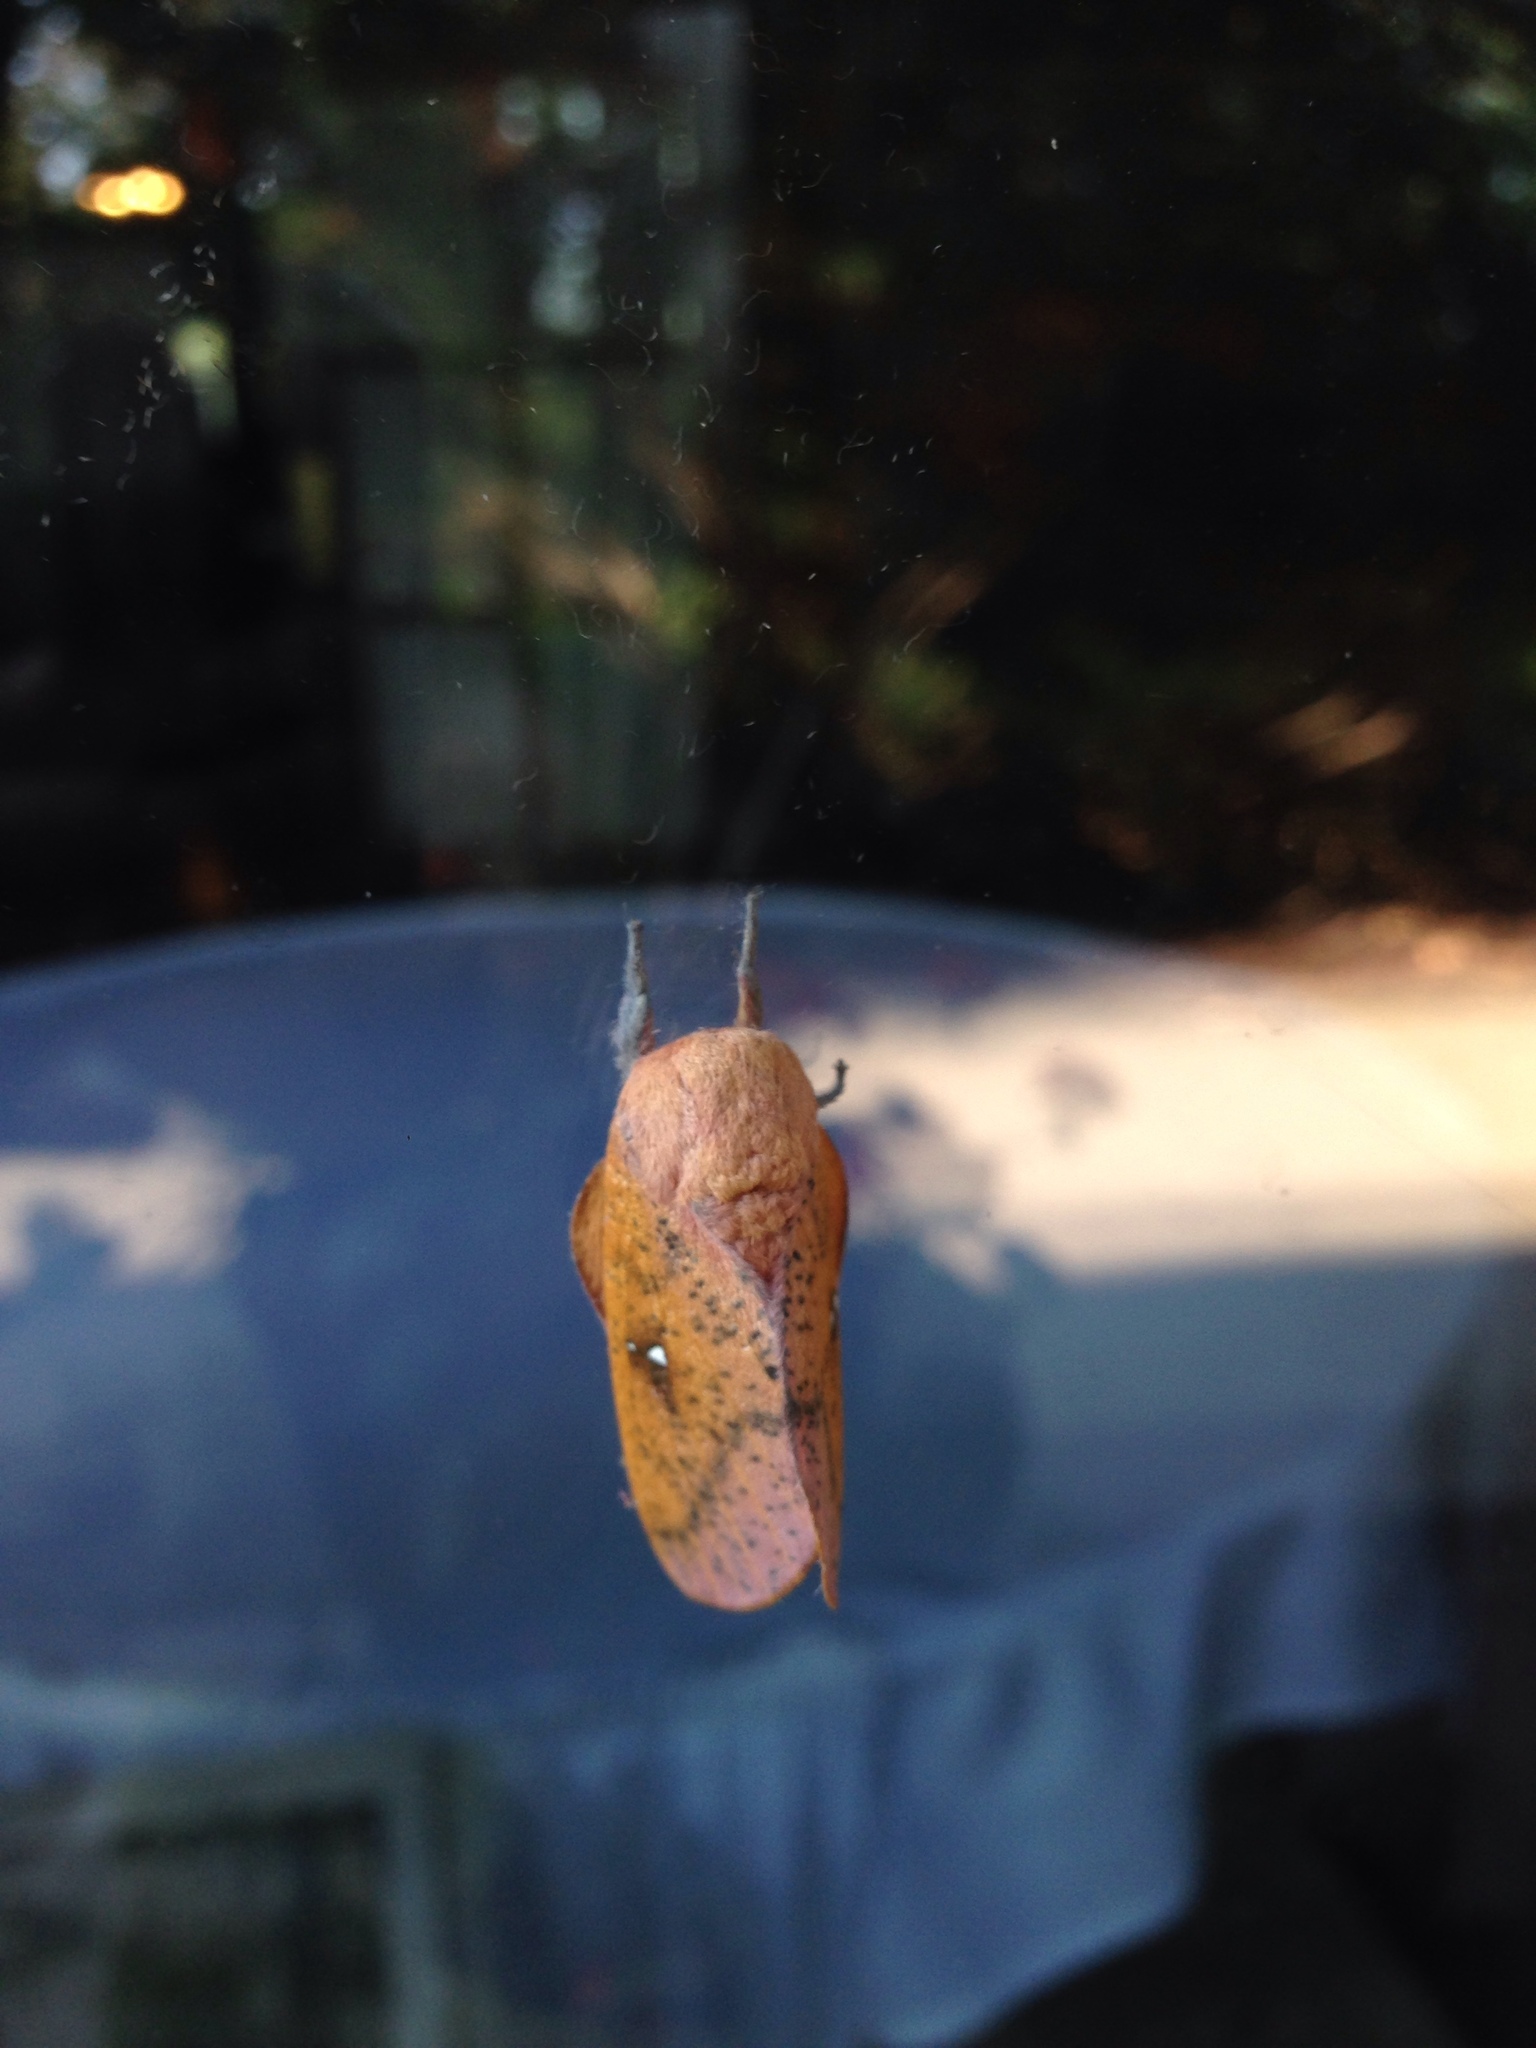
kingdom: Animalia
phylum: Arthropoda
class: Insecta
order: Lepidoptera
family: Saturniidae
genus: Syssphinx
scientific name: Syssphinx bicolor
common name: Honey locust moth
